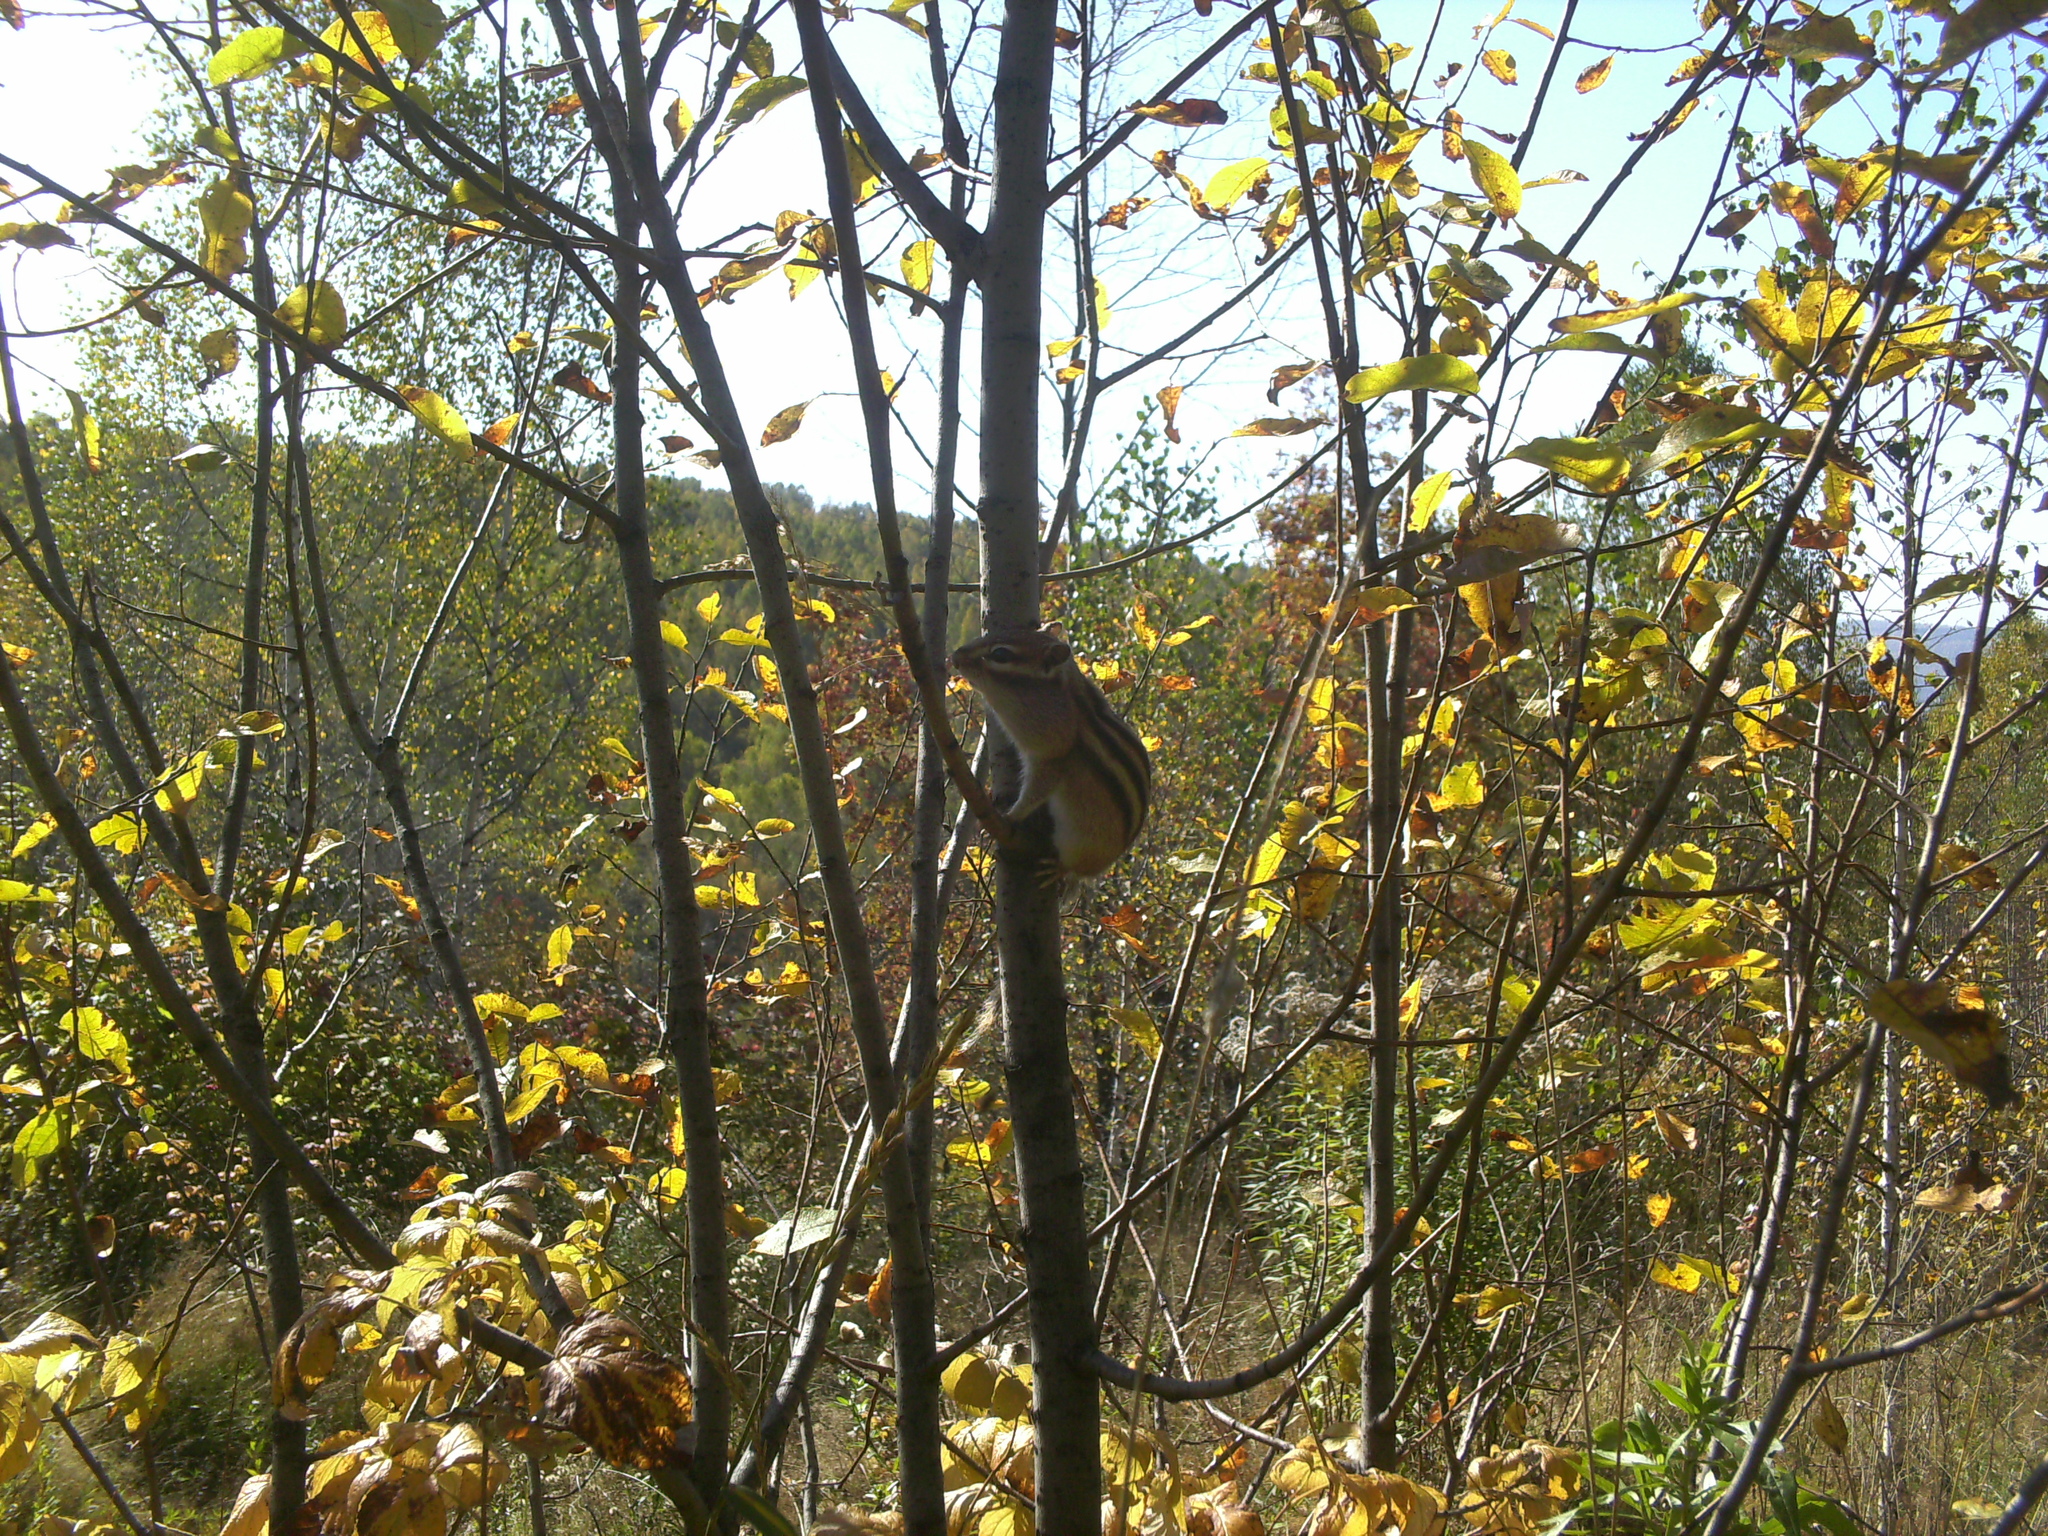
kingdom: Animalia
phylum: Chordata
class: Mammalia
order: Rodentia
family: Sciuridae
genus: Tamias
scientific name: Tamias sibiricus
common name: Siberian chipmunk
